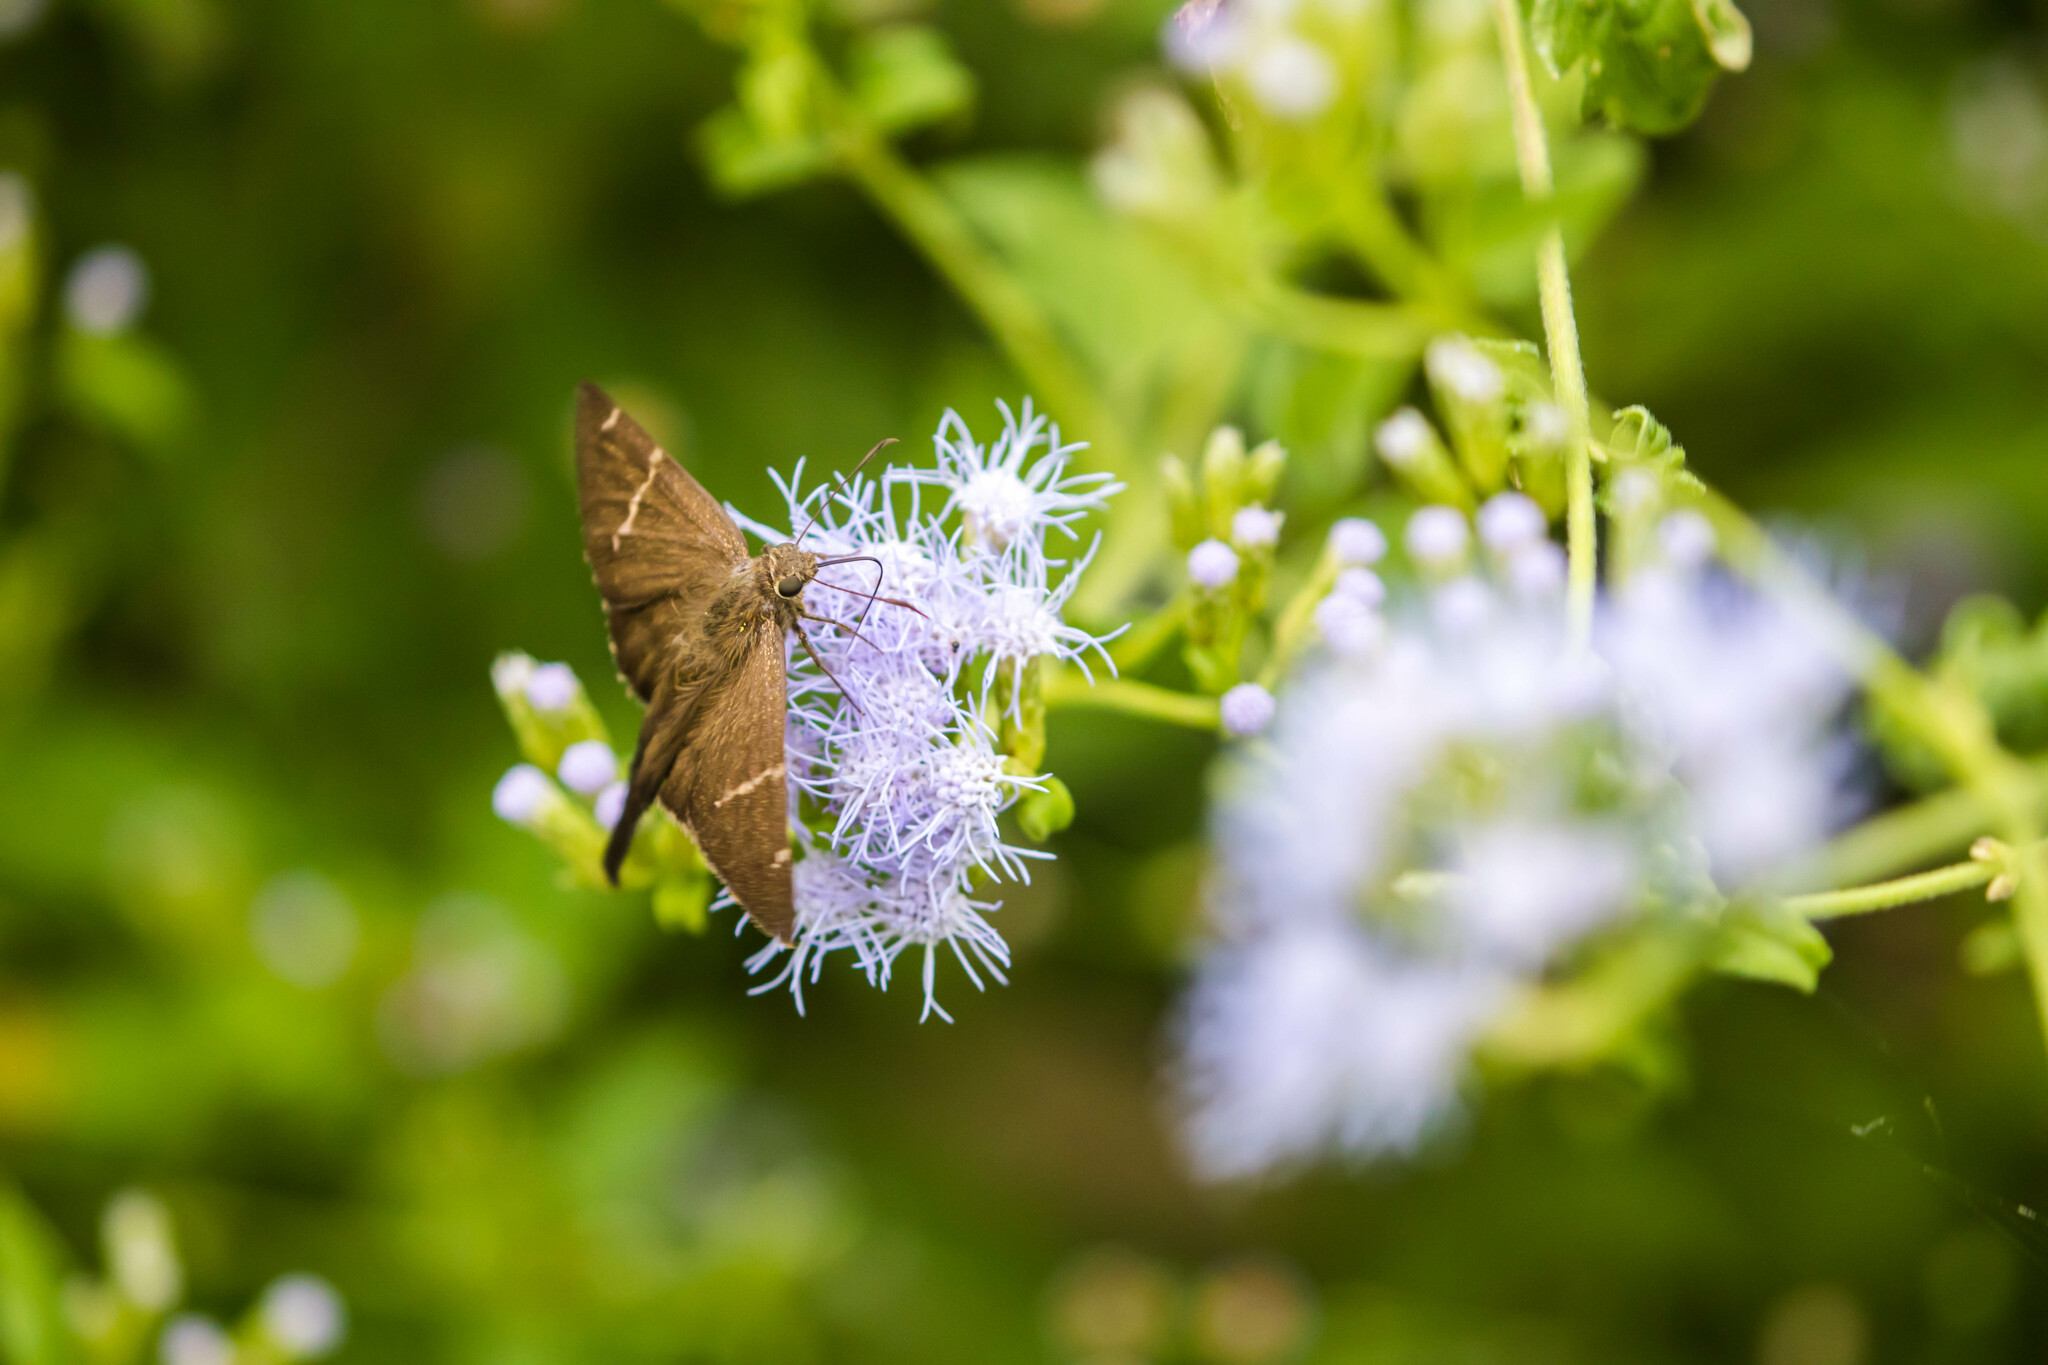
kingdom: Animalia
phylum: Arthropoda
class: Insecta
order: Lepidoptera
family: Hesperiidae
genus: Urbanus
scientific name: Urbanus procne
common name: Brown longtail
